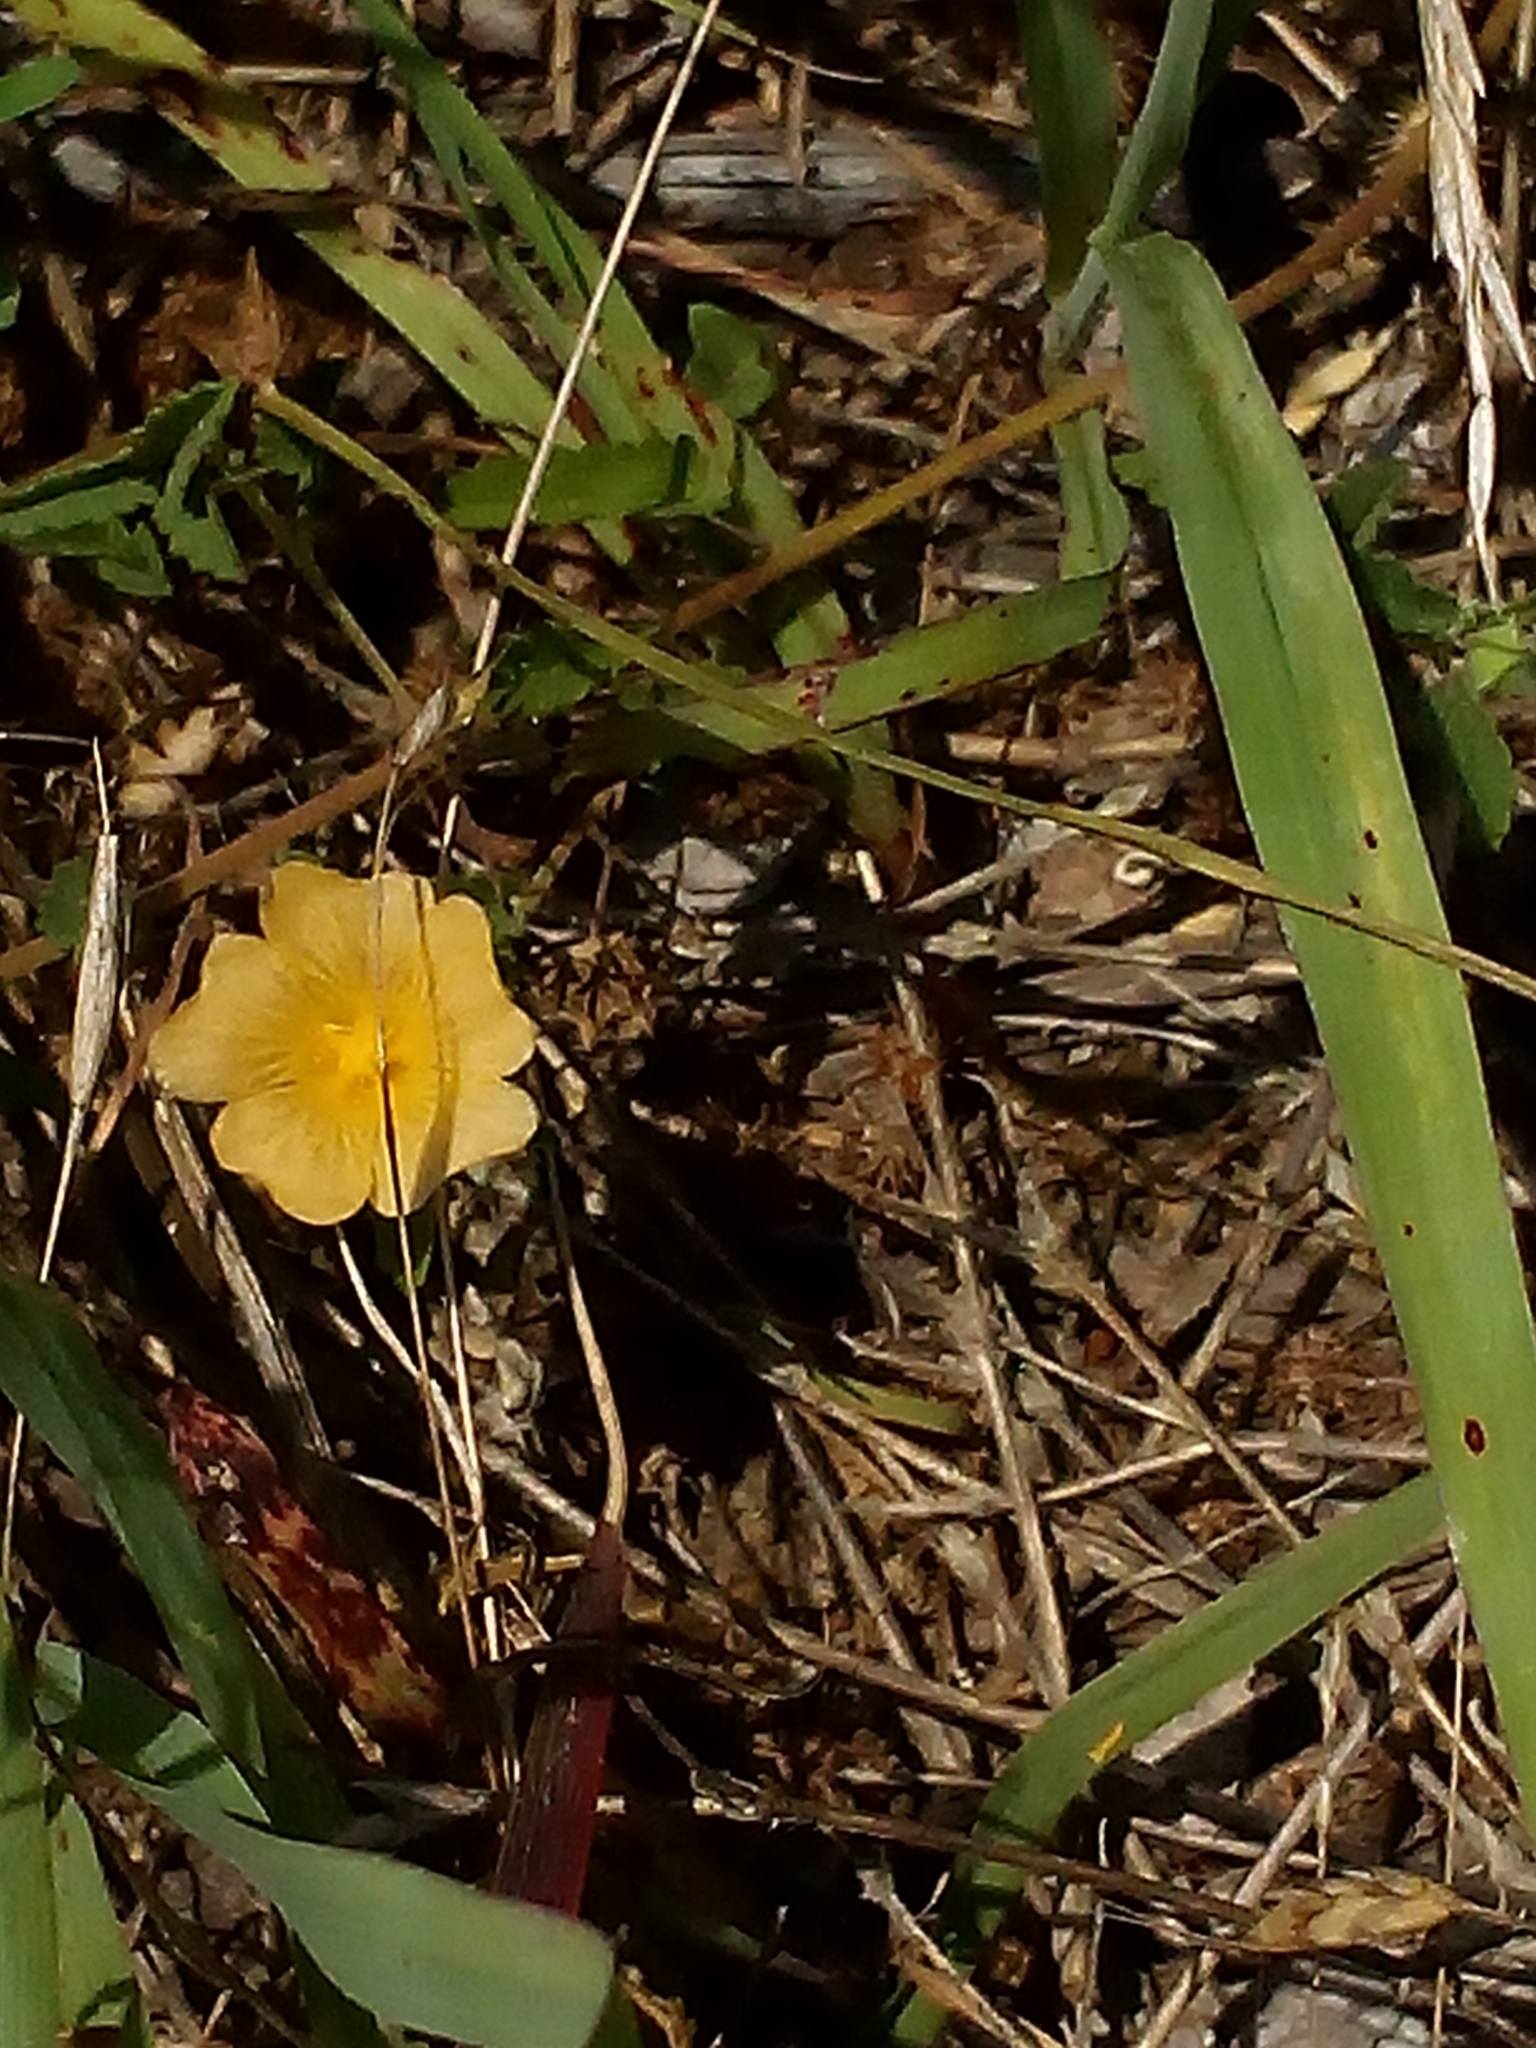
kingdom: Plantae
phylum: Tracheophyta
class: Magnoliopsida
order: Malvales
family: Malvaceae
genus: Sida
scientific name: Sida abutilifolia
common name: Spreading fanpetals
